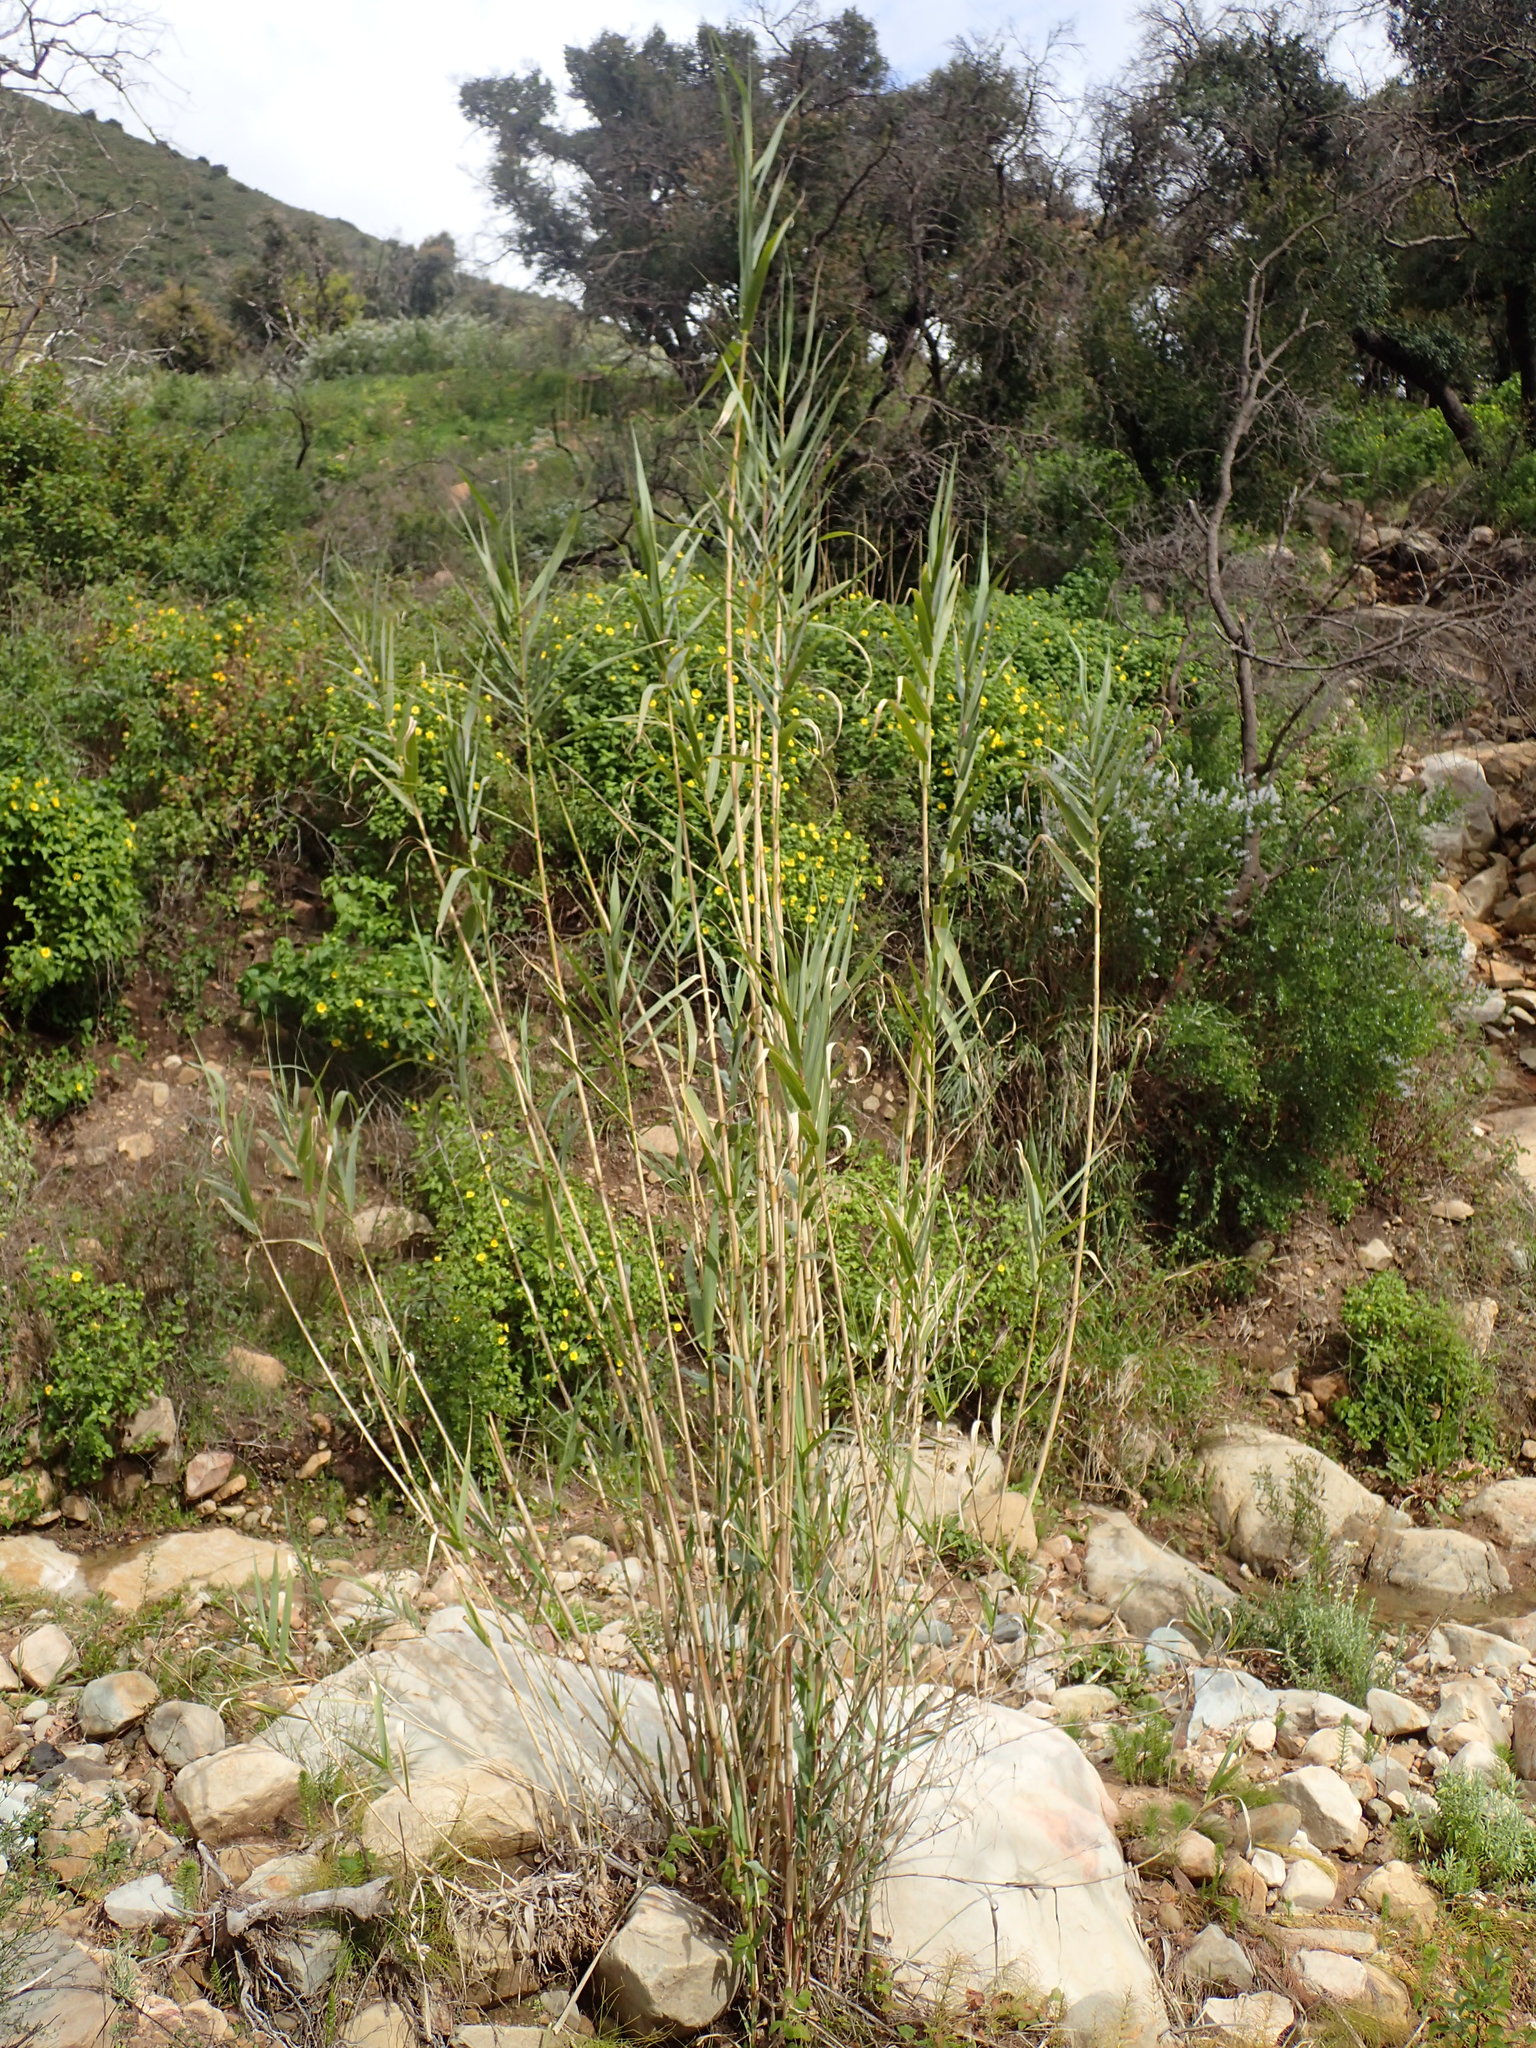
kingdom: Plantae
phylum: Tracheophyta
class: Liliopsida
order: Poales
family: Poaceae
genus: Arundo
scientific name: Arundo donax
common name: Giant reed
